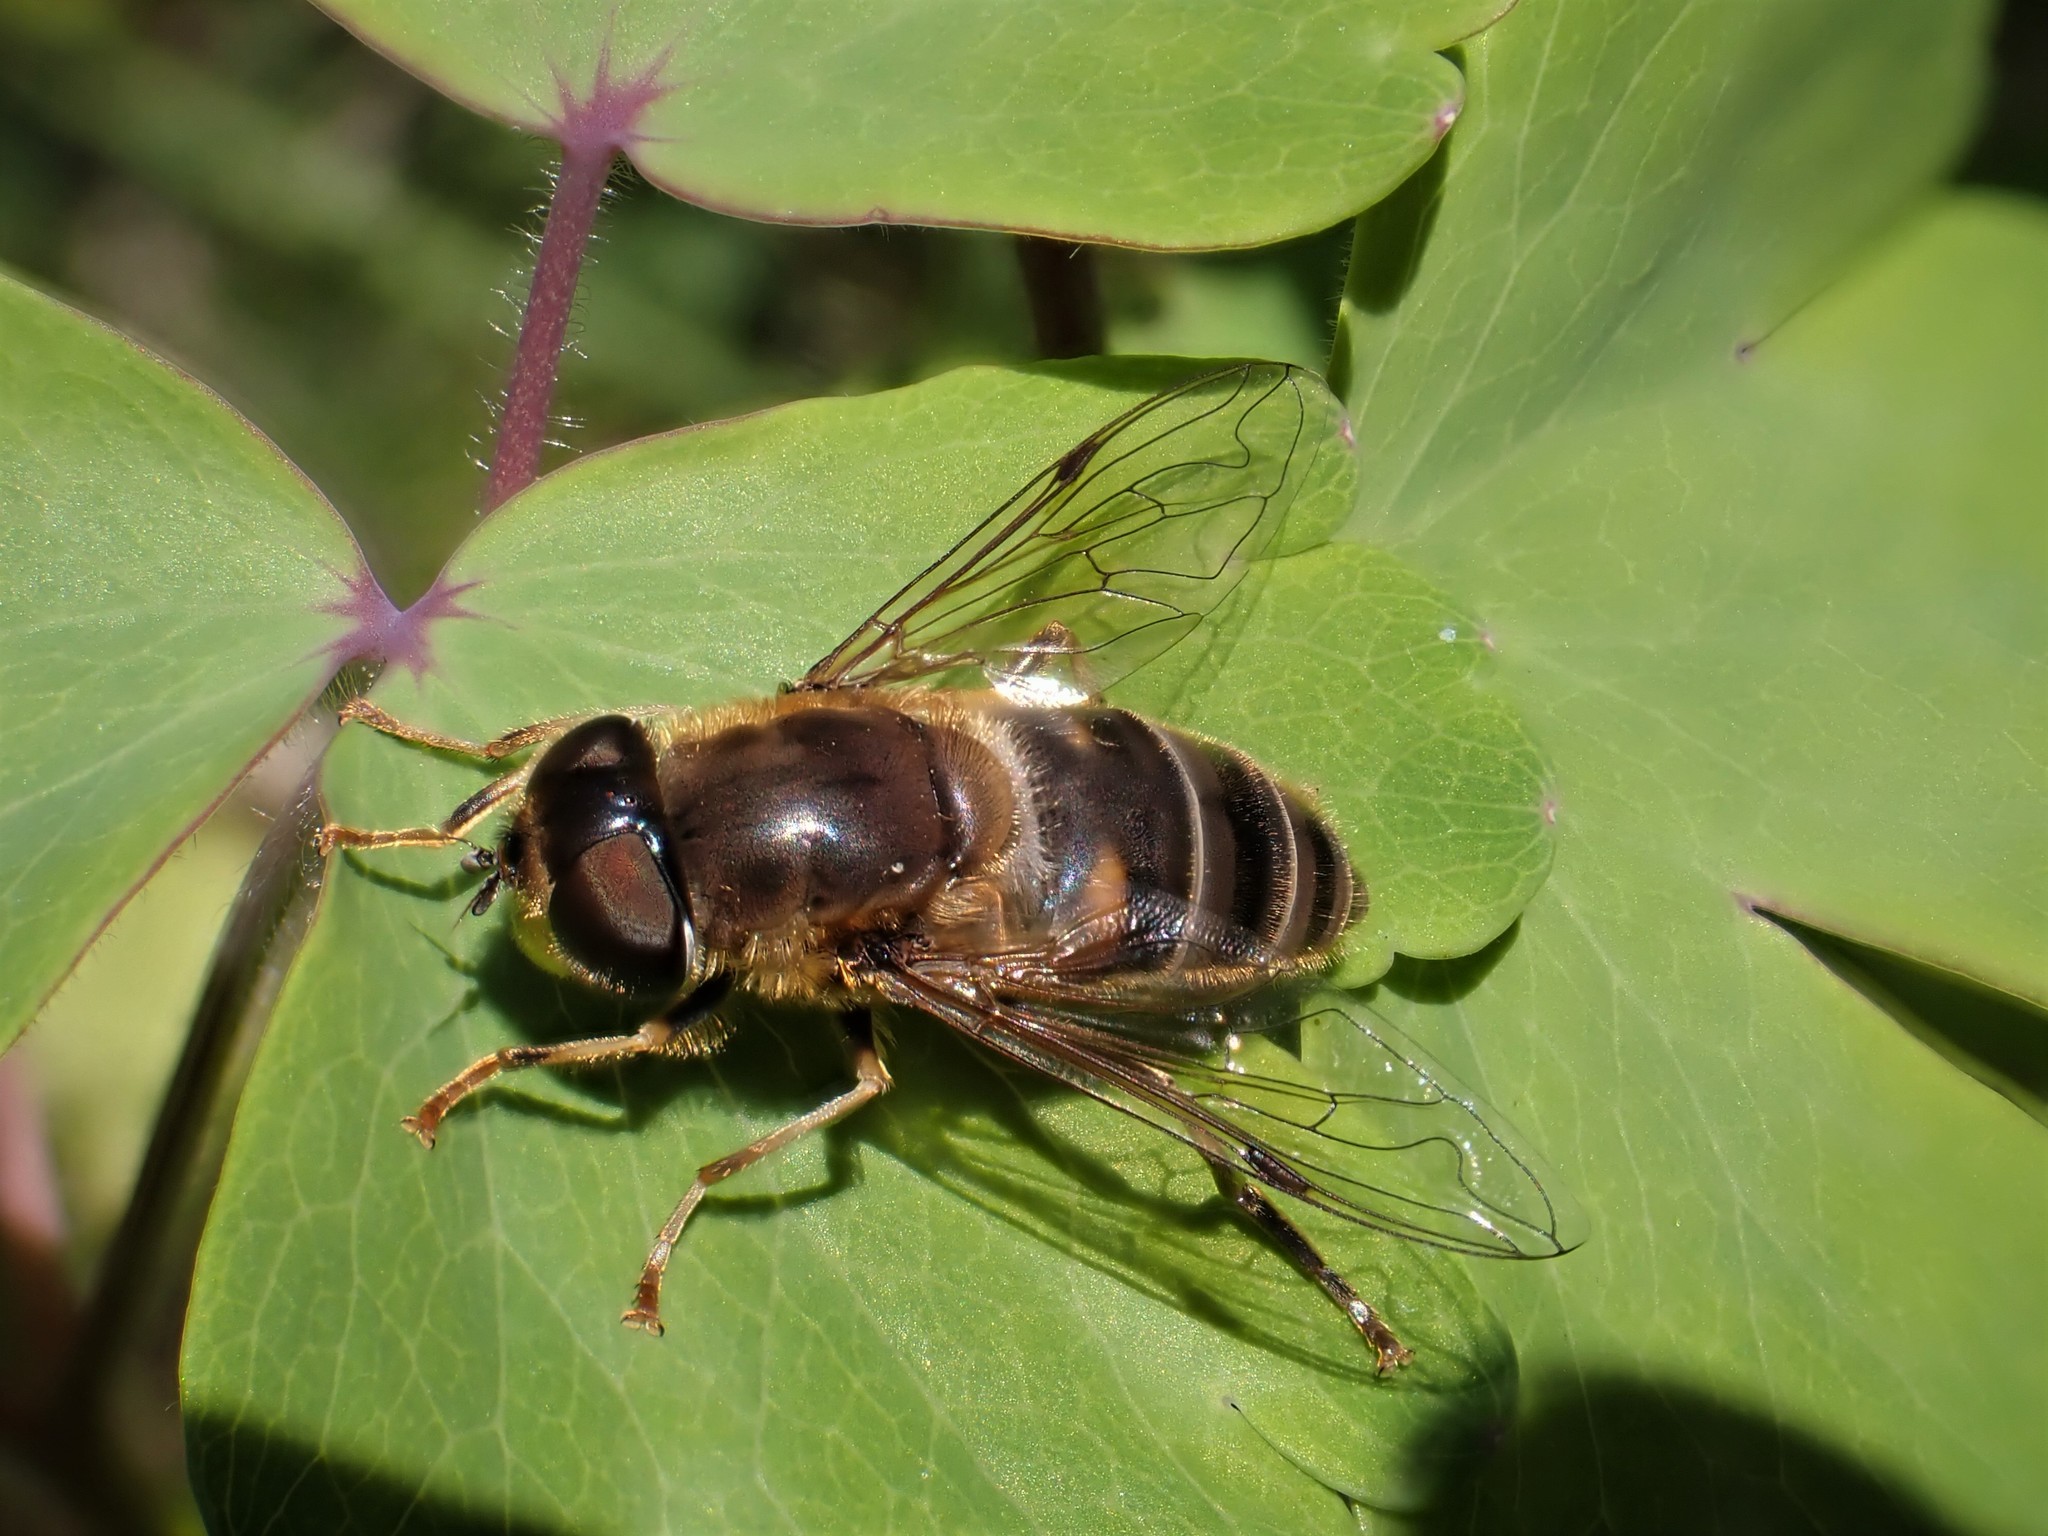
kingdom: Animalia
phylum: Arthropoda
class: Insecta
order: Diptera
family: Syrphidae
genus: Eristalis
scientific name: Eristalis pertinax
